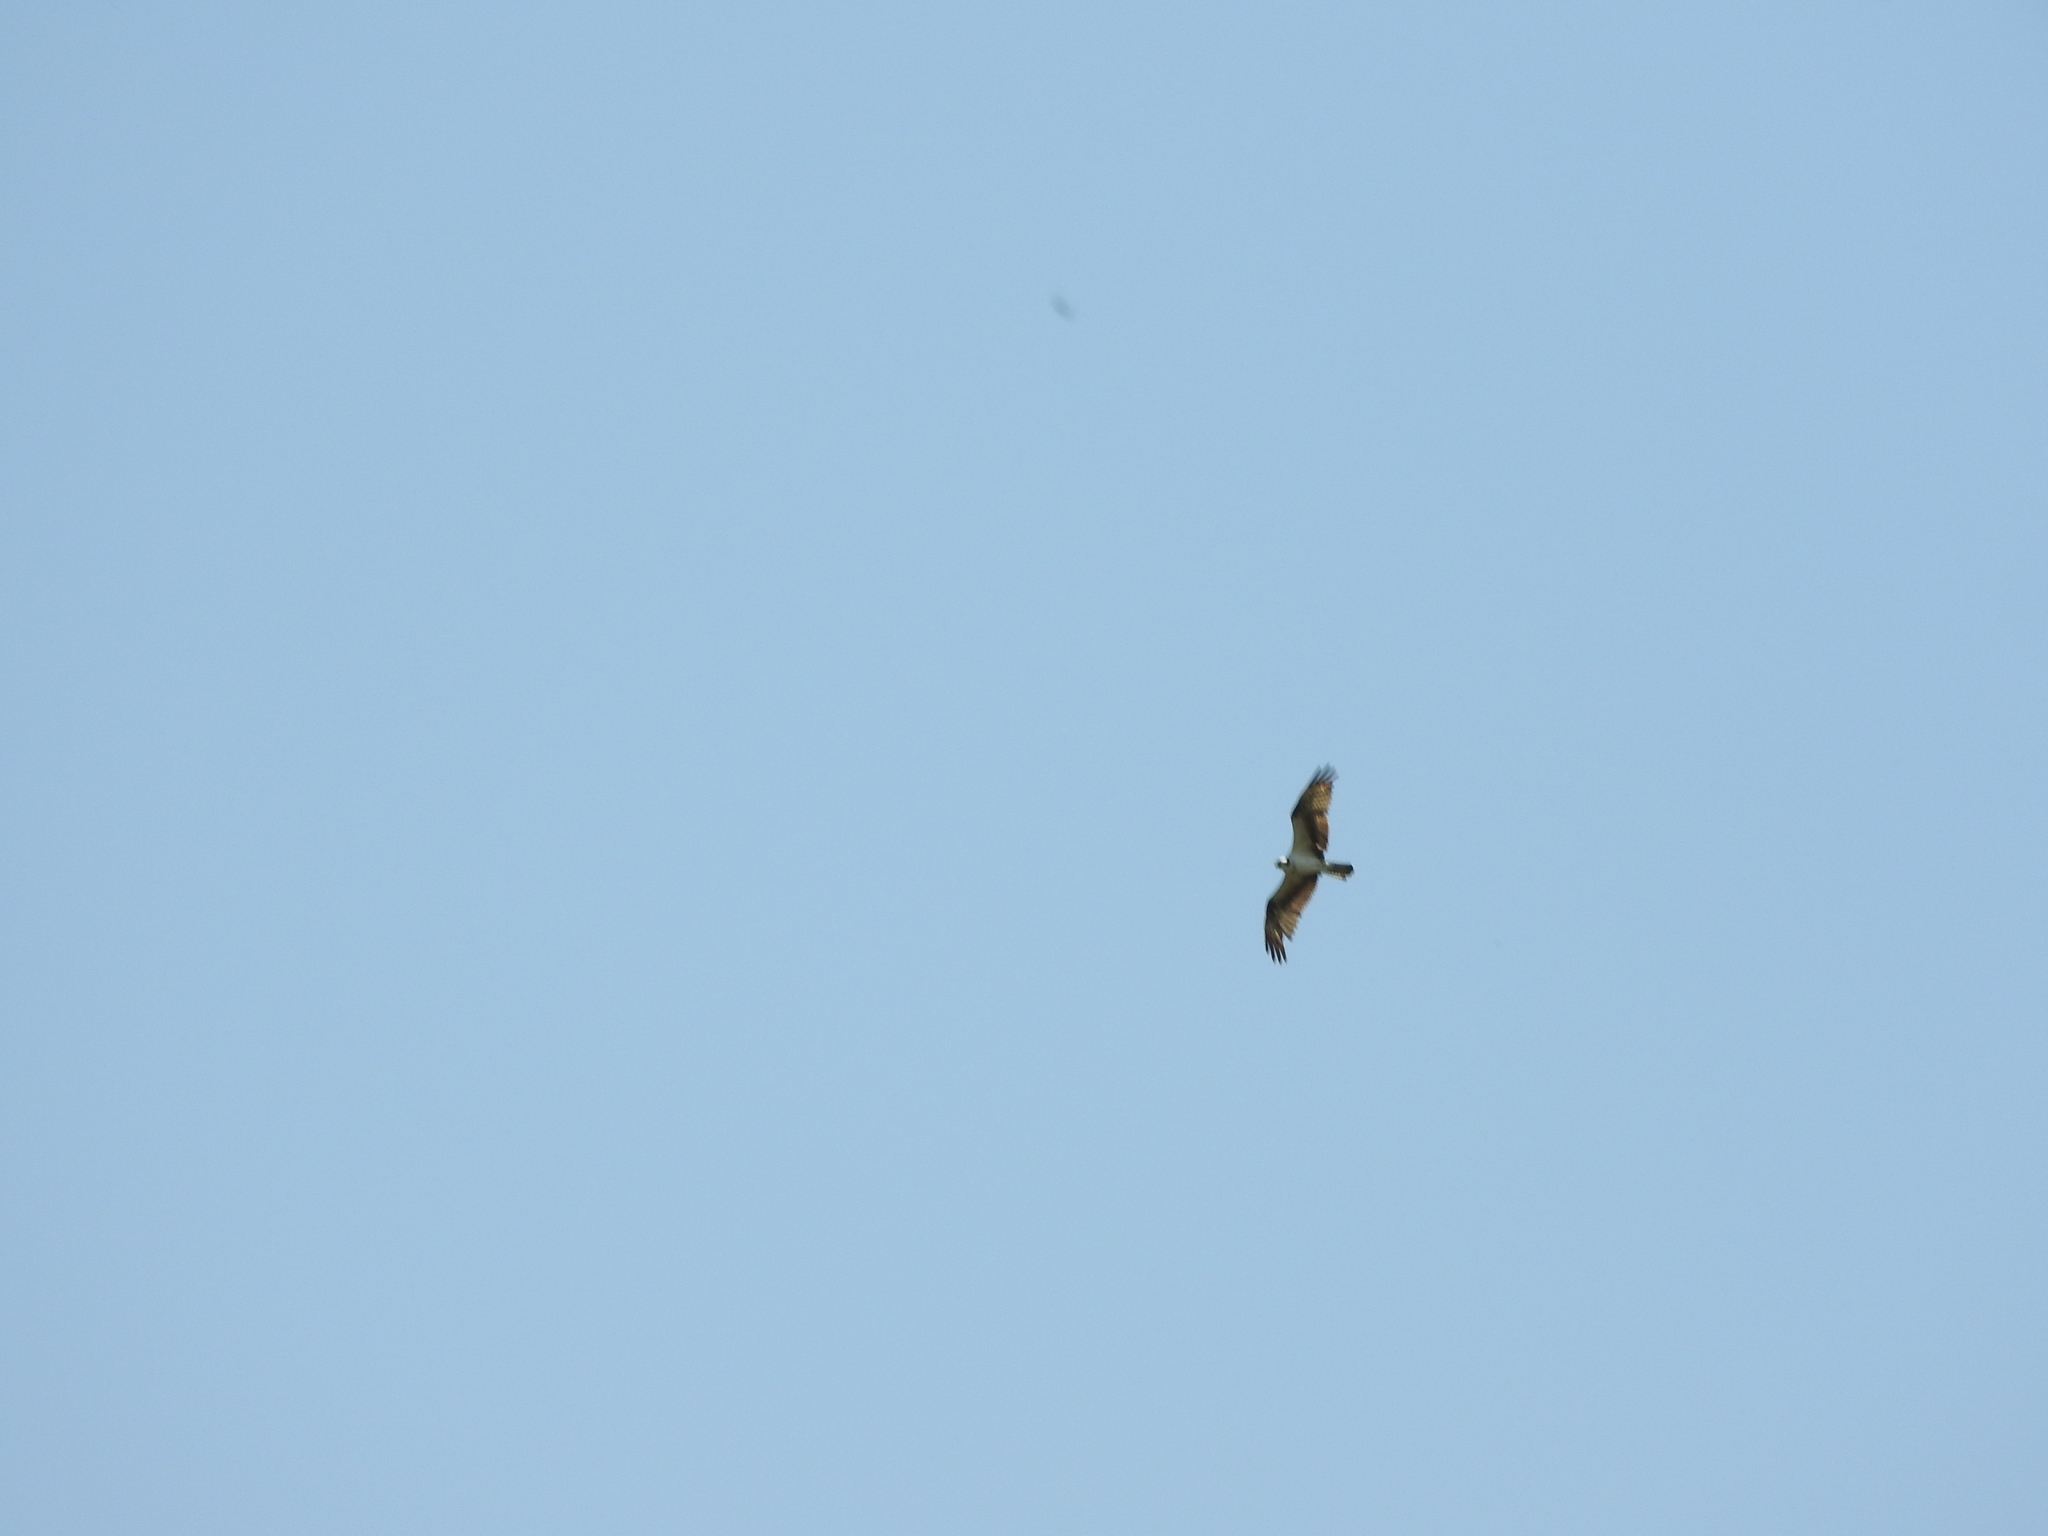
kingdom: Animalia
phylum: Chordata
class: Aves
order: Accipitriformes
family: Pandionidae
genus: Pandion
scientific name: Pandion haliaetus
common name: Osprey
